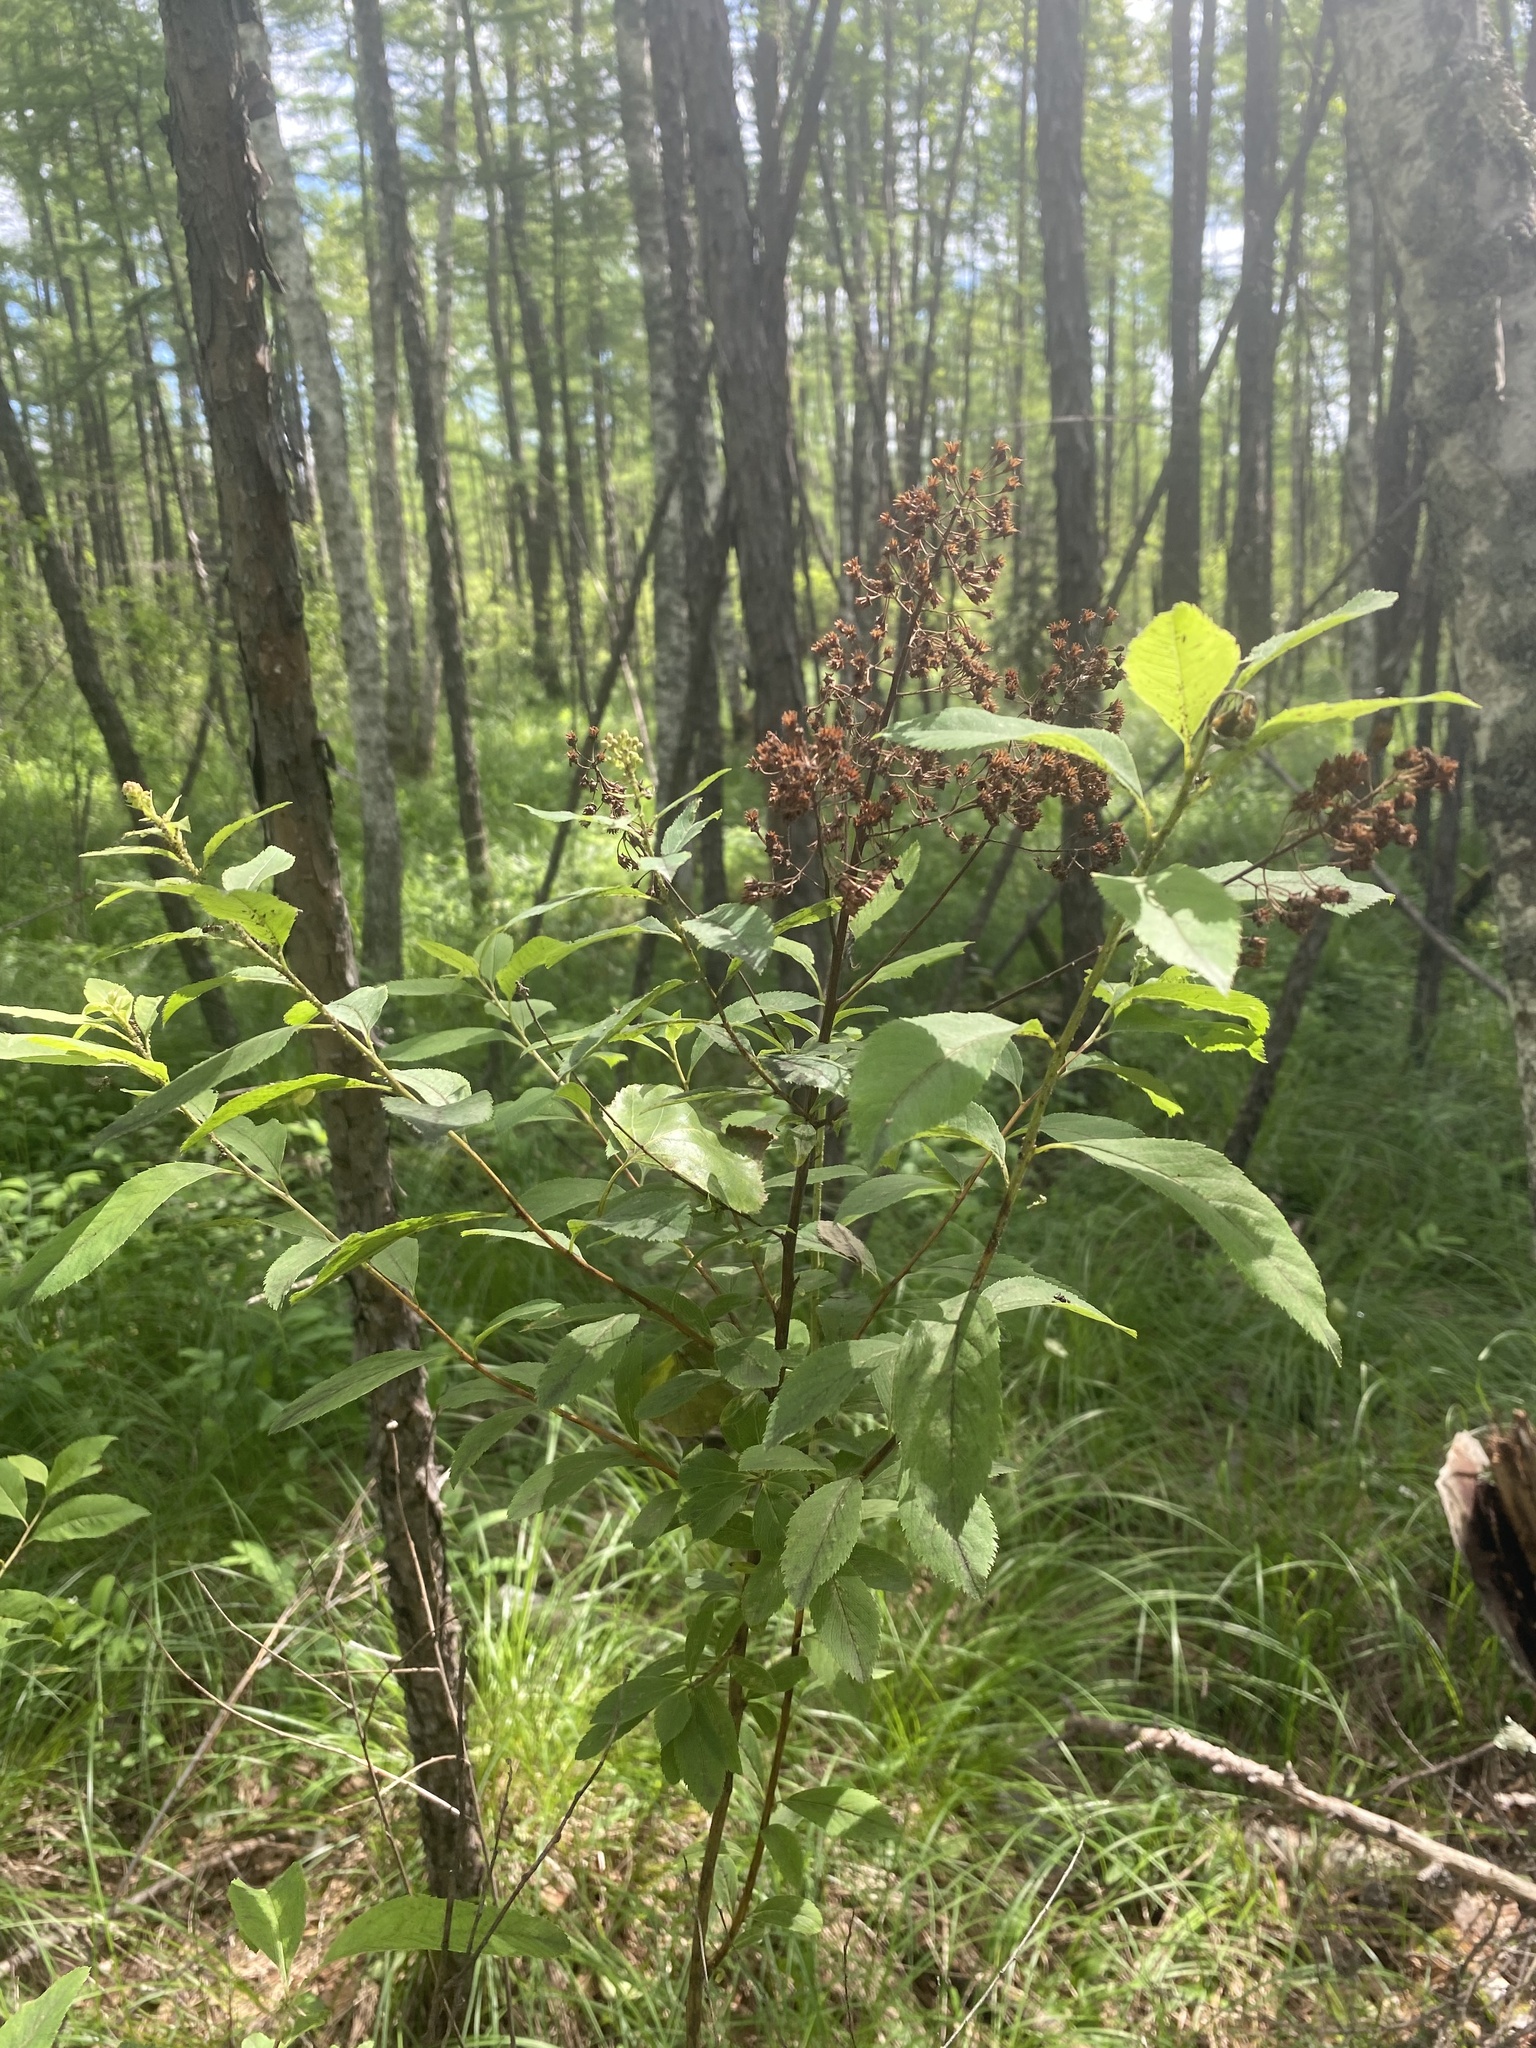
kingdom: Plantae
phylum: Tracheophyta
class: Magnoliopsida
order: Rosales
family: Rosaceae
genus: Spiraea
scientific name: Spiraea salicifolia
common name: Bridewort
